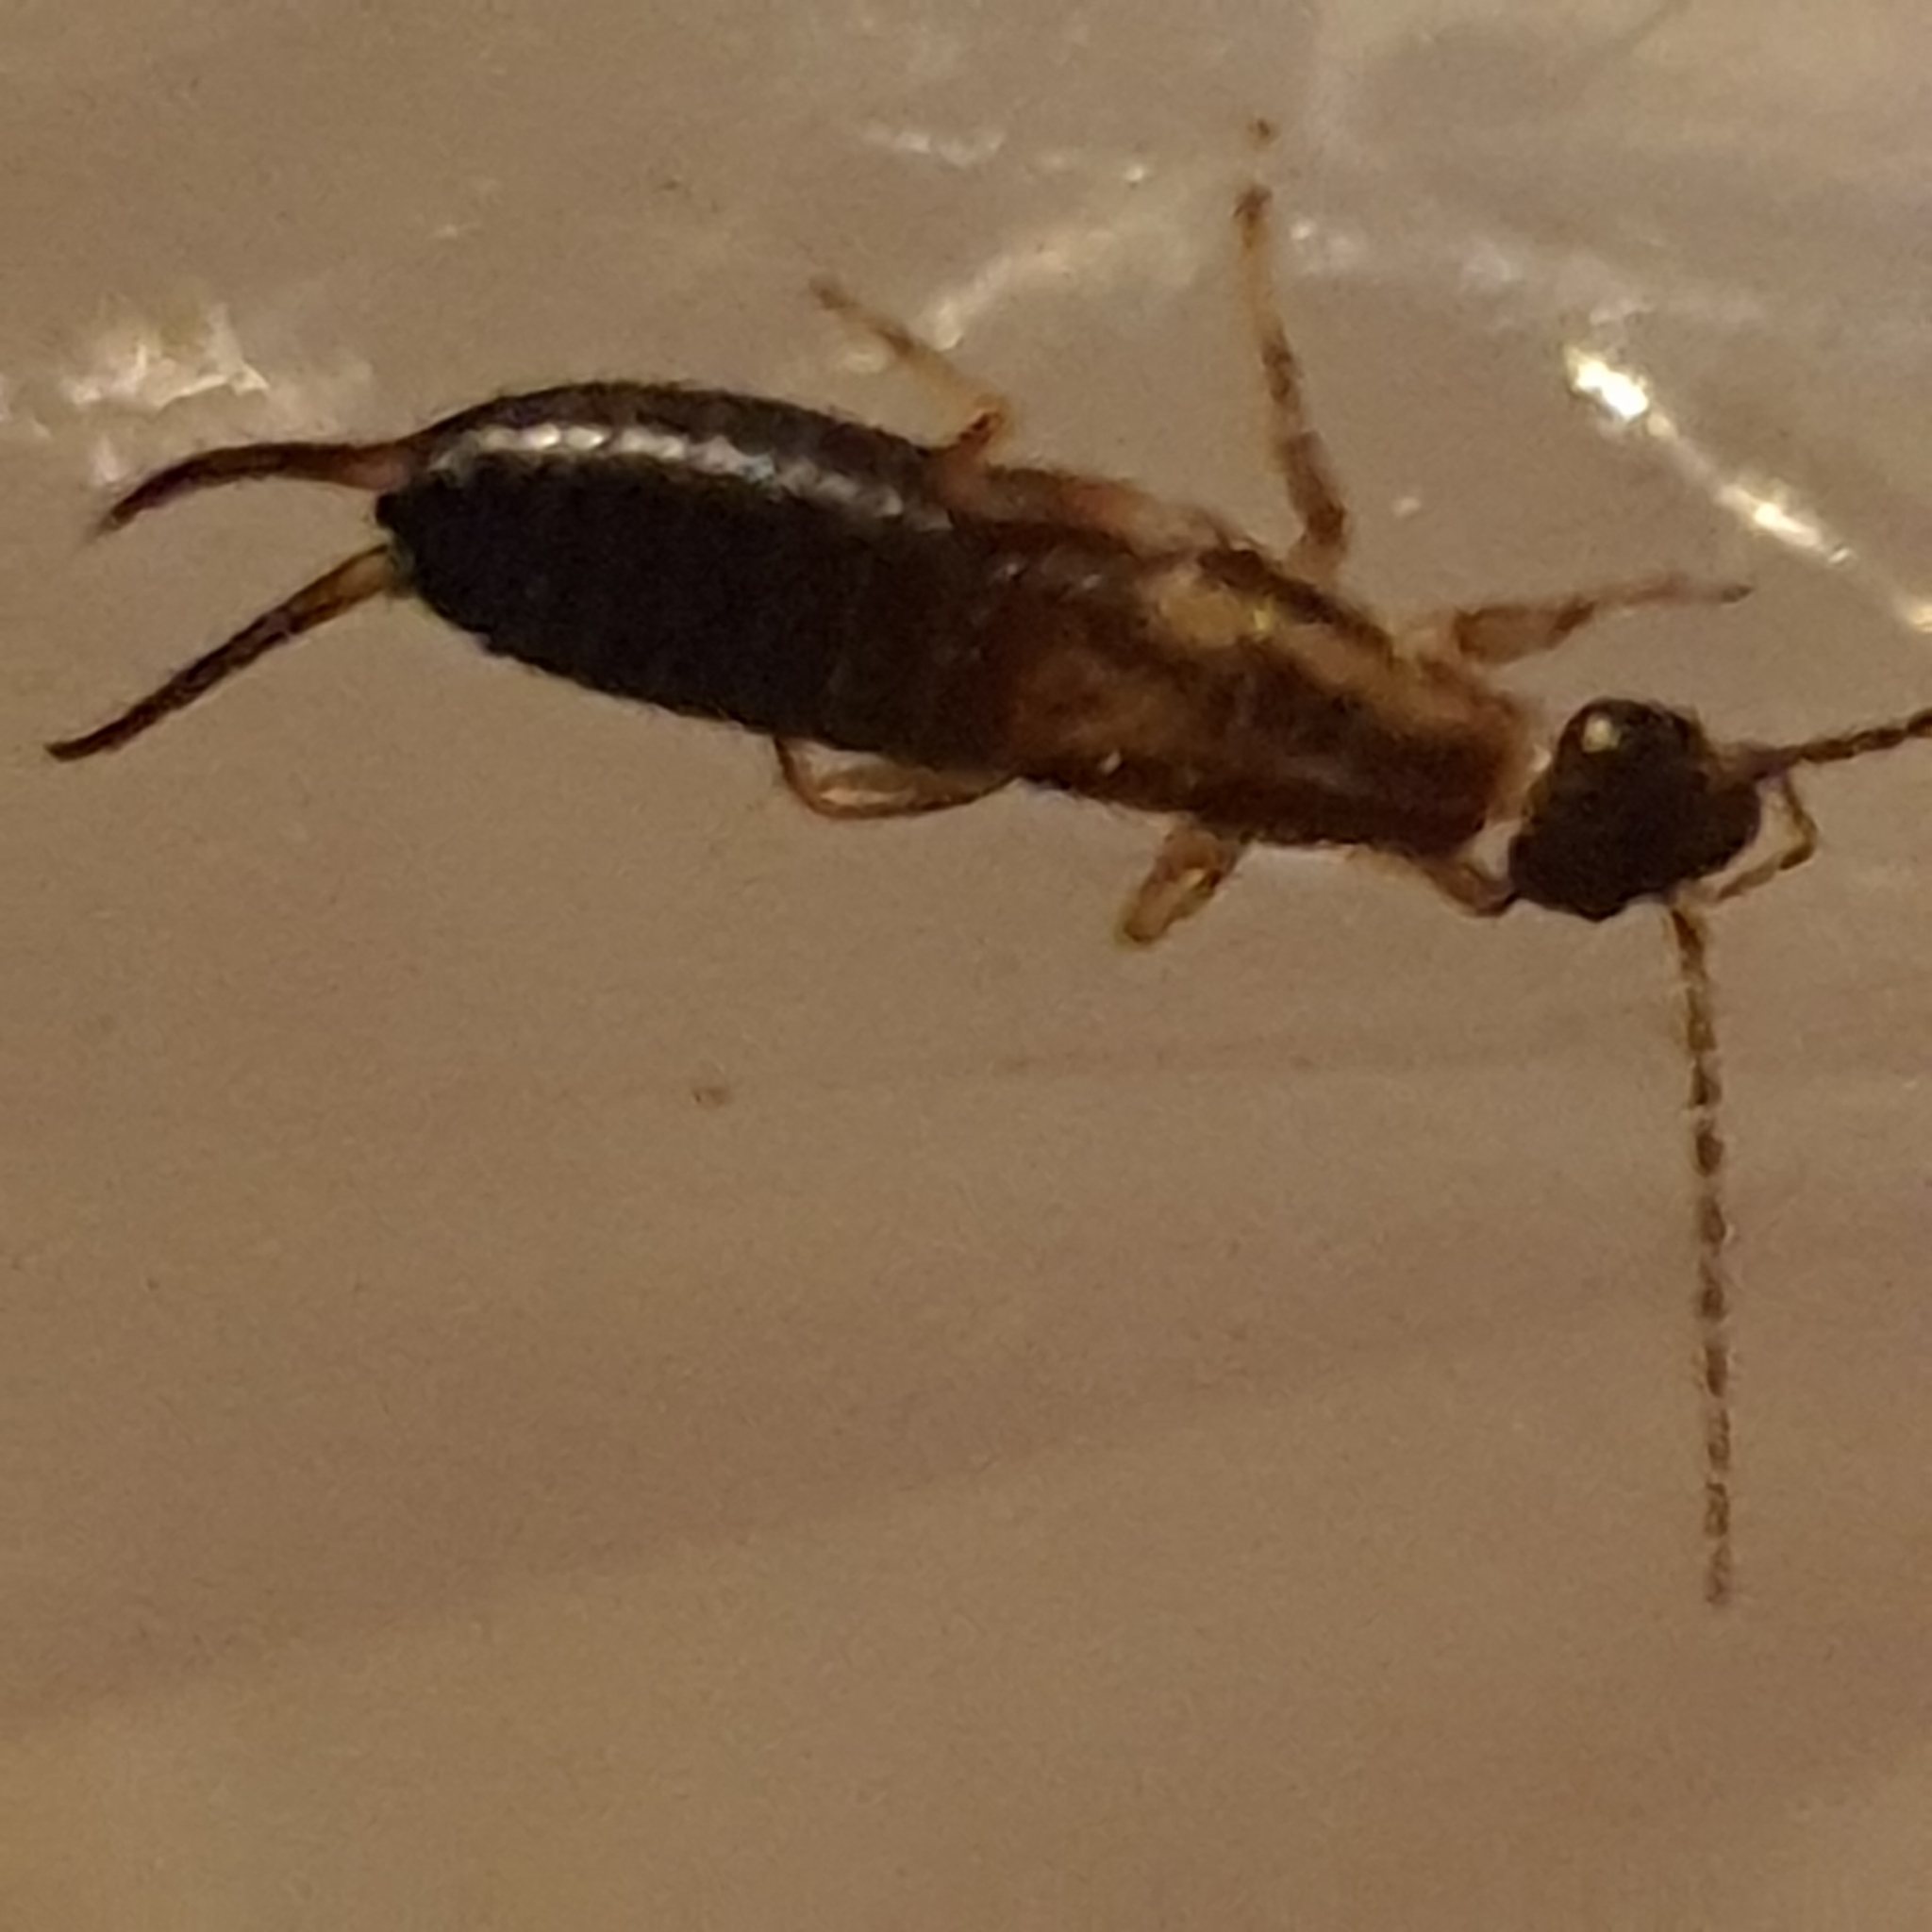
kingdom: Animalia
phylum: Arthropoda
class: Insecta
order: Dermaptera
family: Forficulidae
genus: Forficula
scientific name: Forficula
